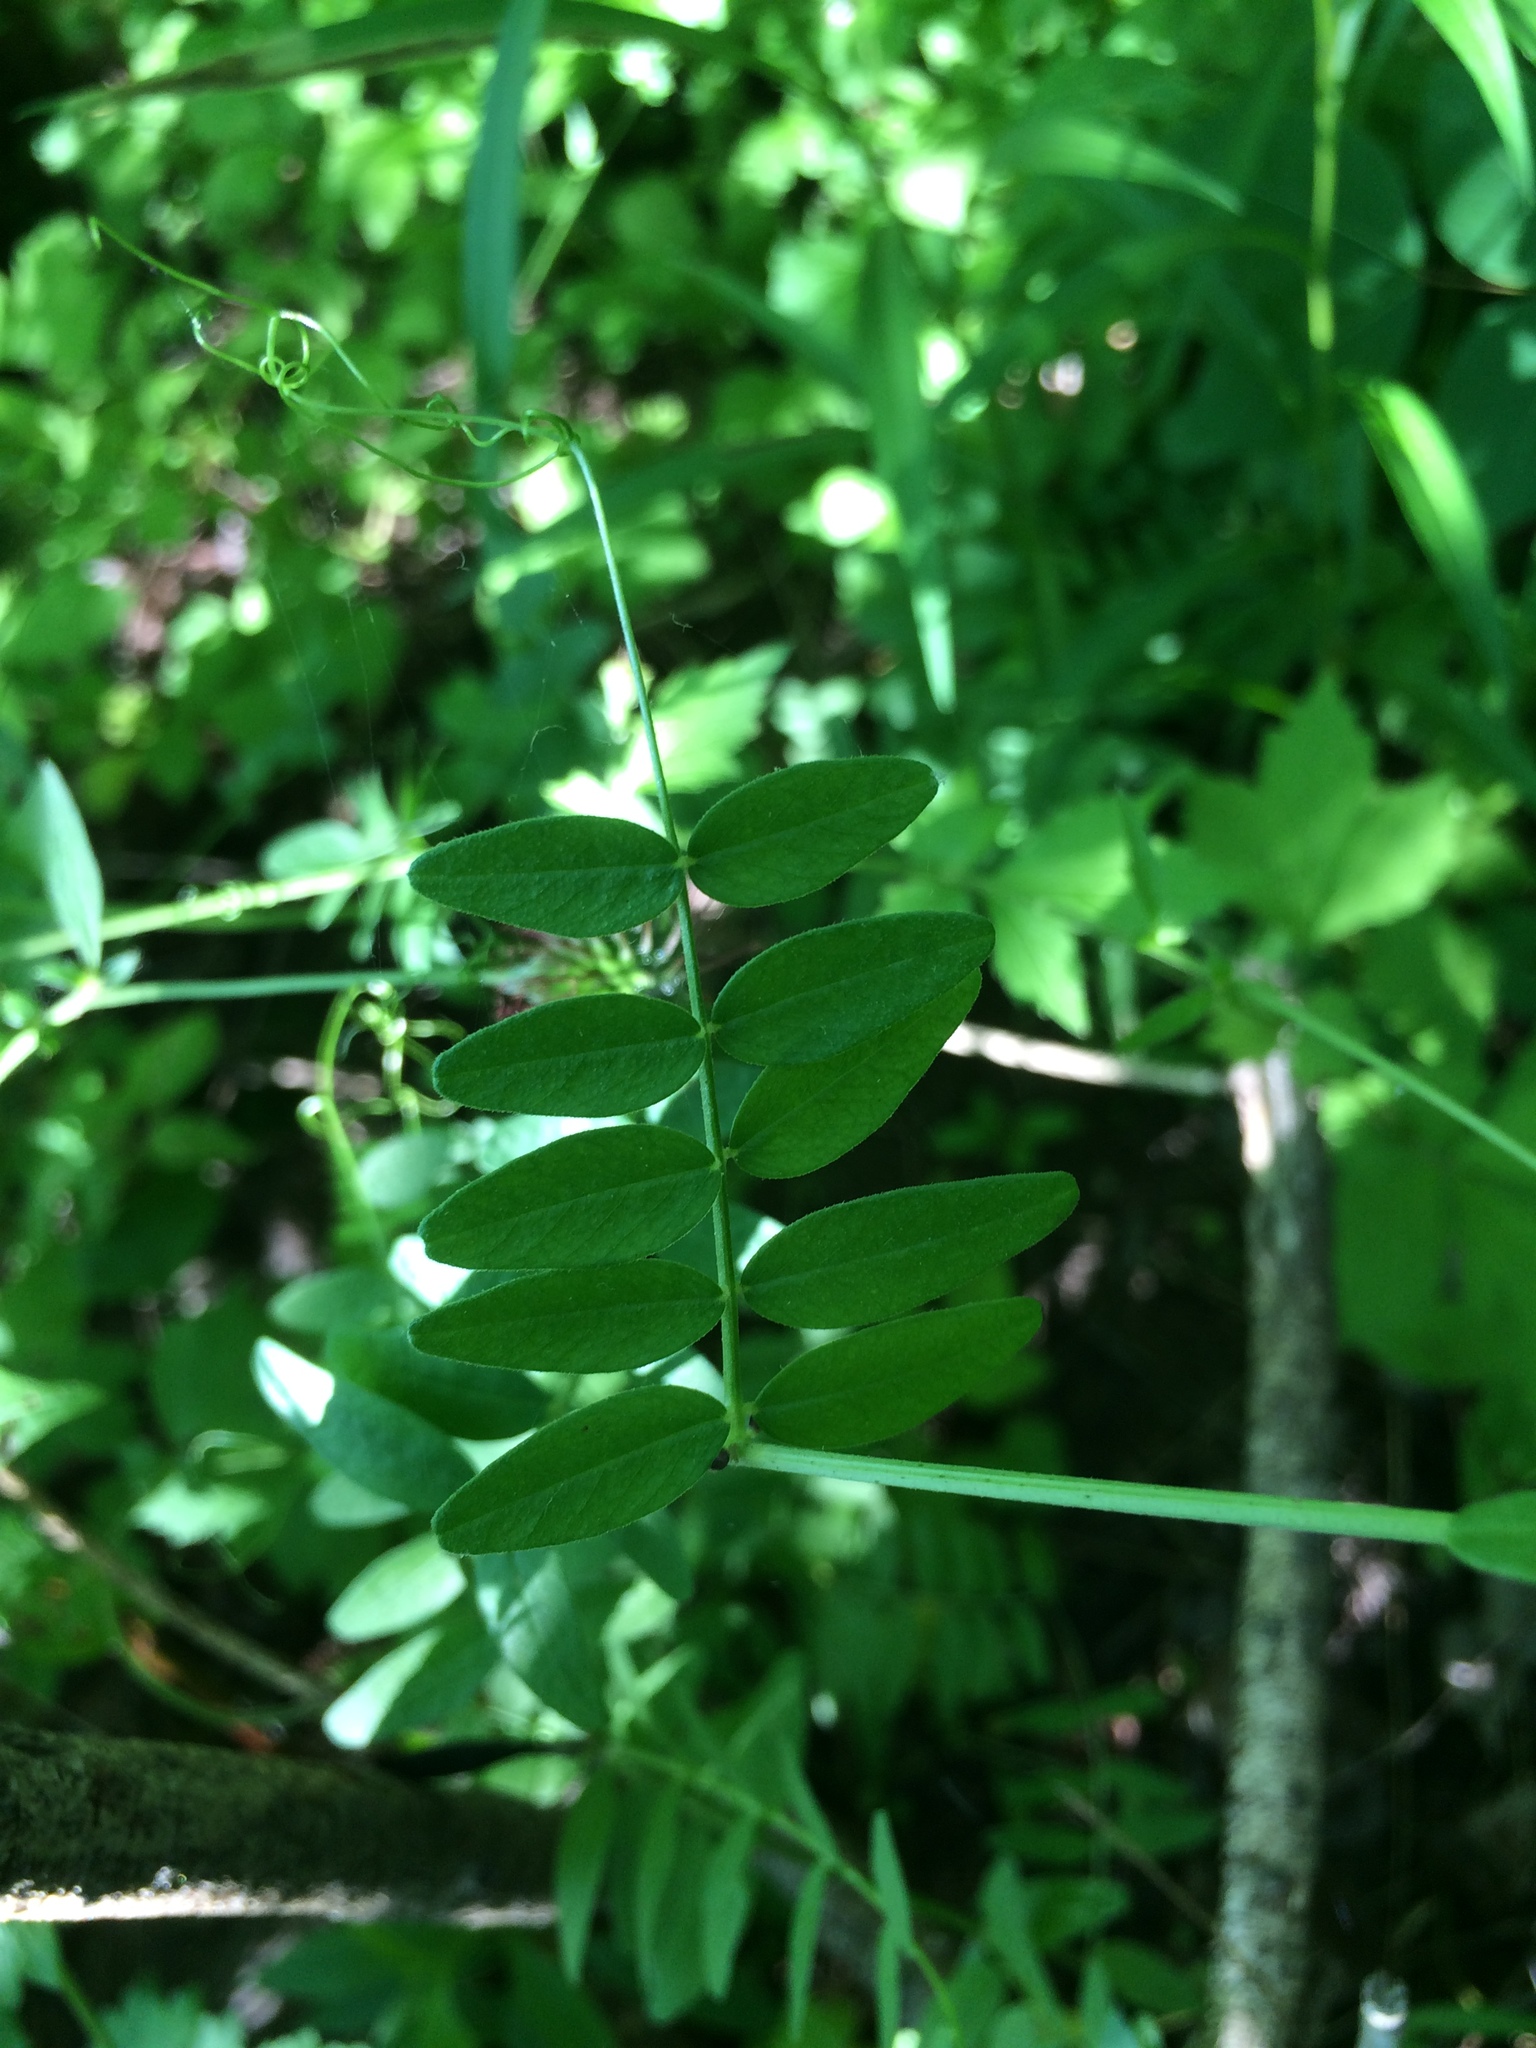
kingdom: Plantae
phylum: Tracheophyta
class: Magnoliopsida
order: Fabales
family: Fabaceae
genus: Vicia
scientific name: Vicia sepium
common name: Bush vetch
